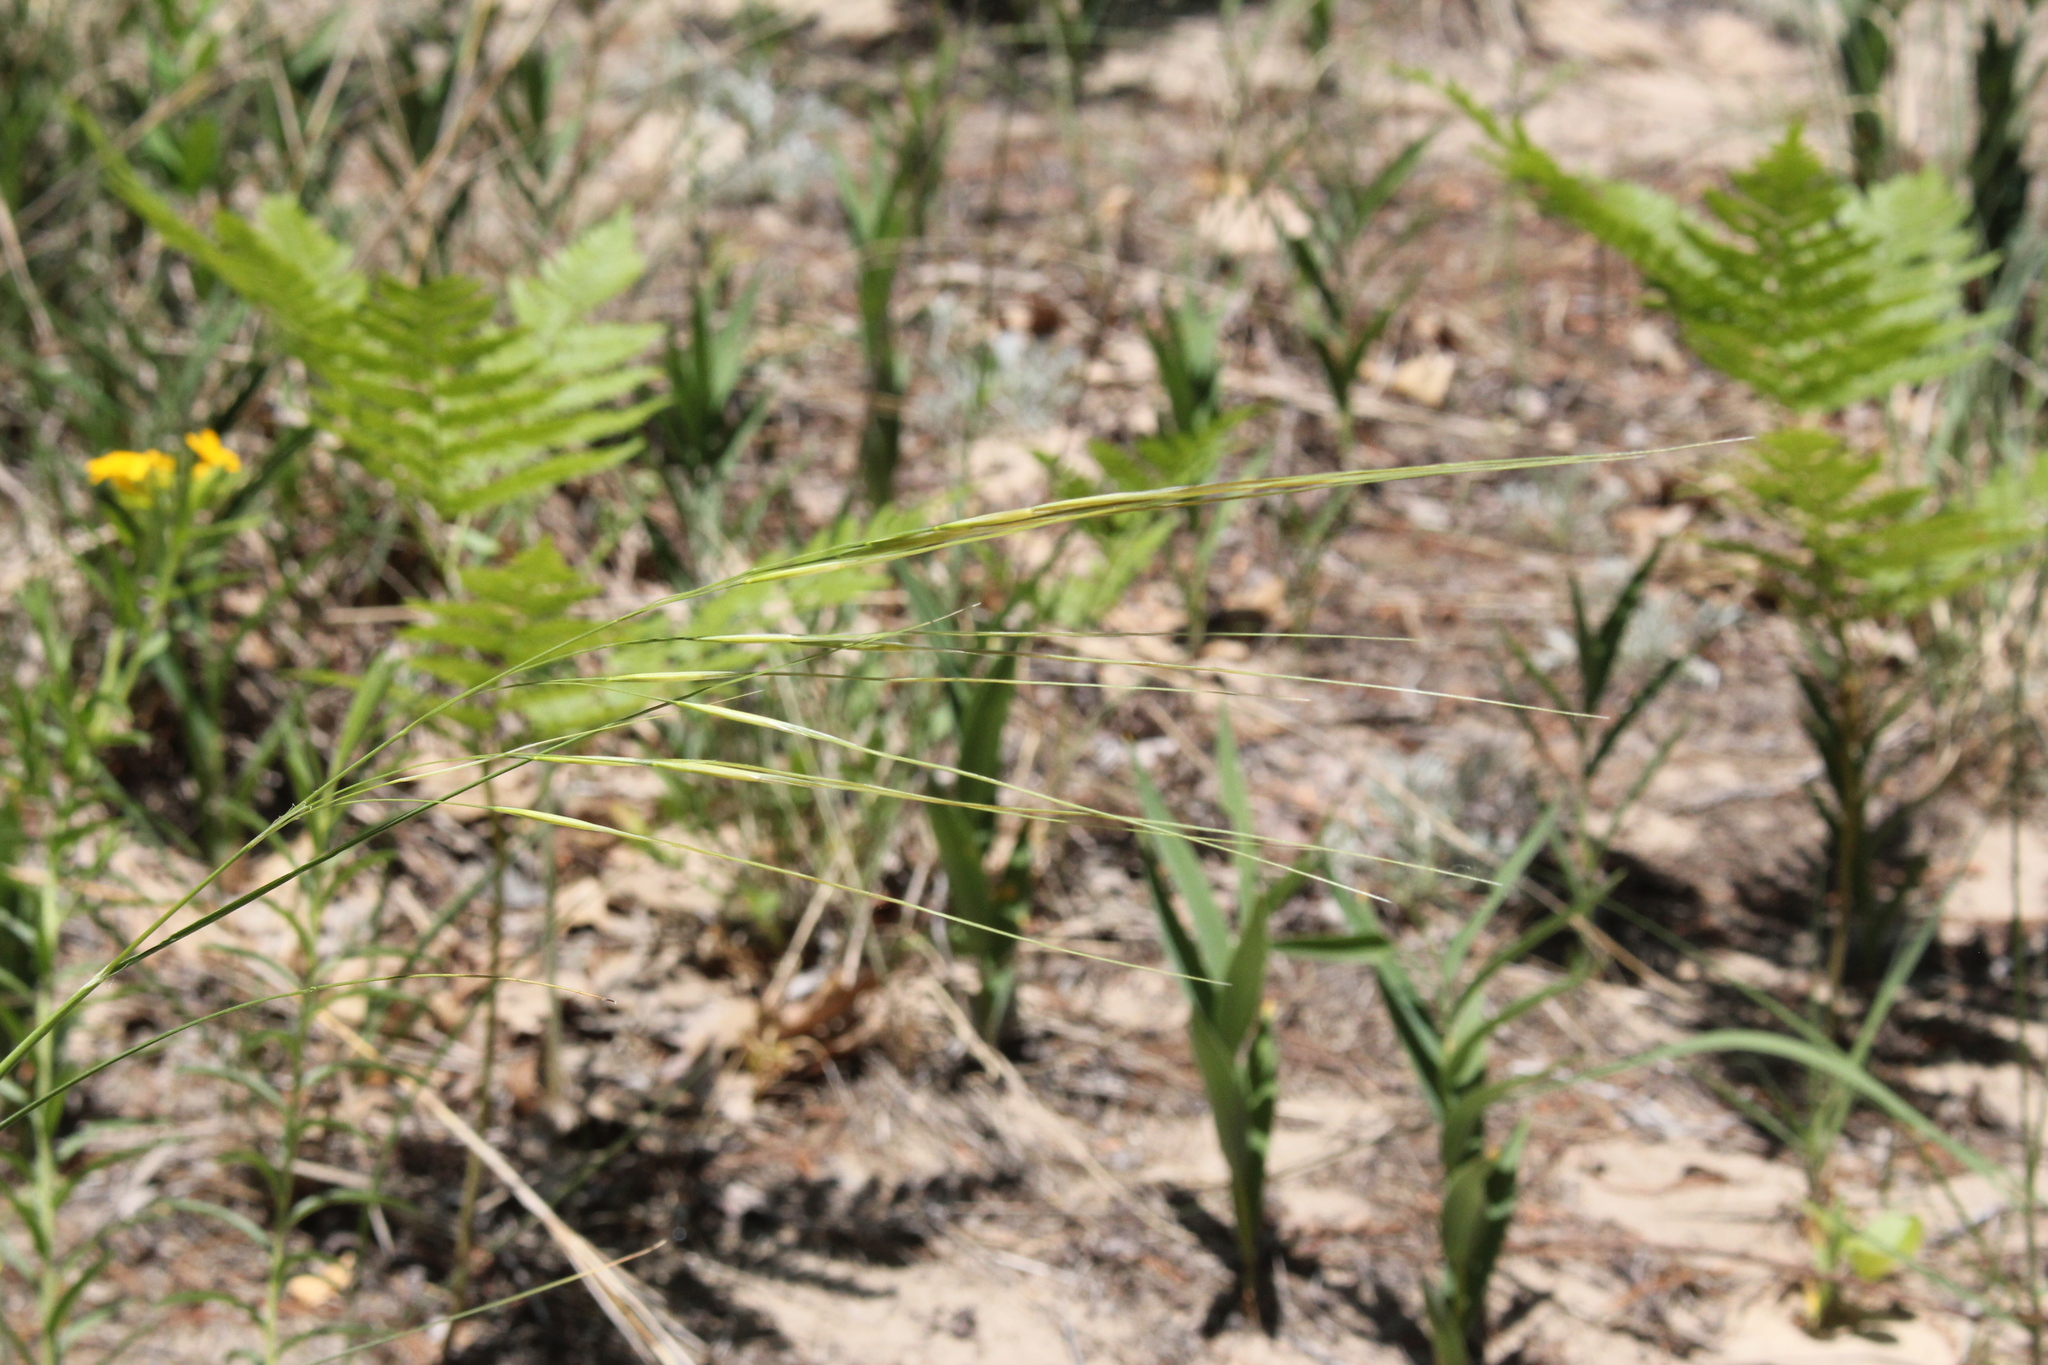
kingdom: Plantae
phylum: Tracheophyta
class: Liliopsida
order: Poales
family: Poaceae
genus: Hesperostipa
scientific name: Hesperostipa spartea
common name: Porcupine grass
